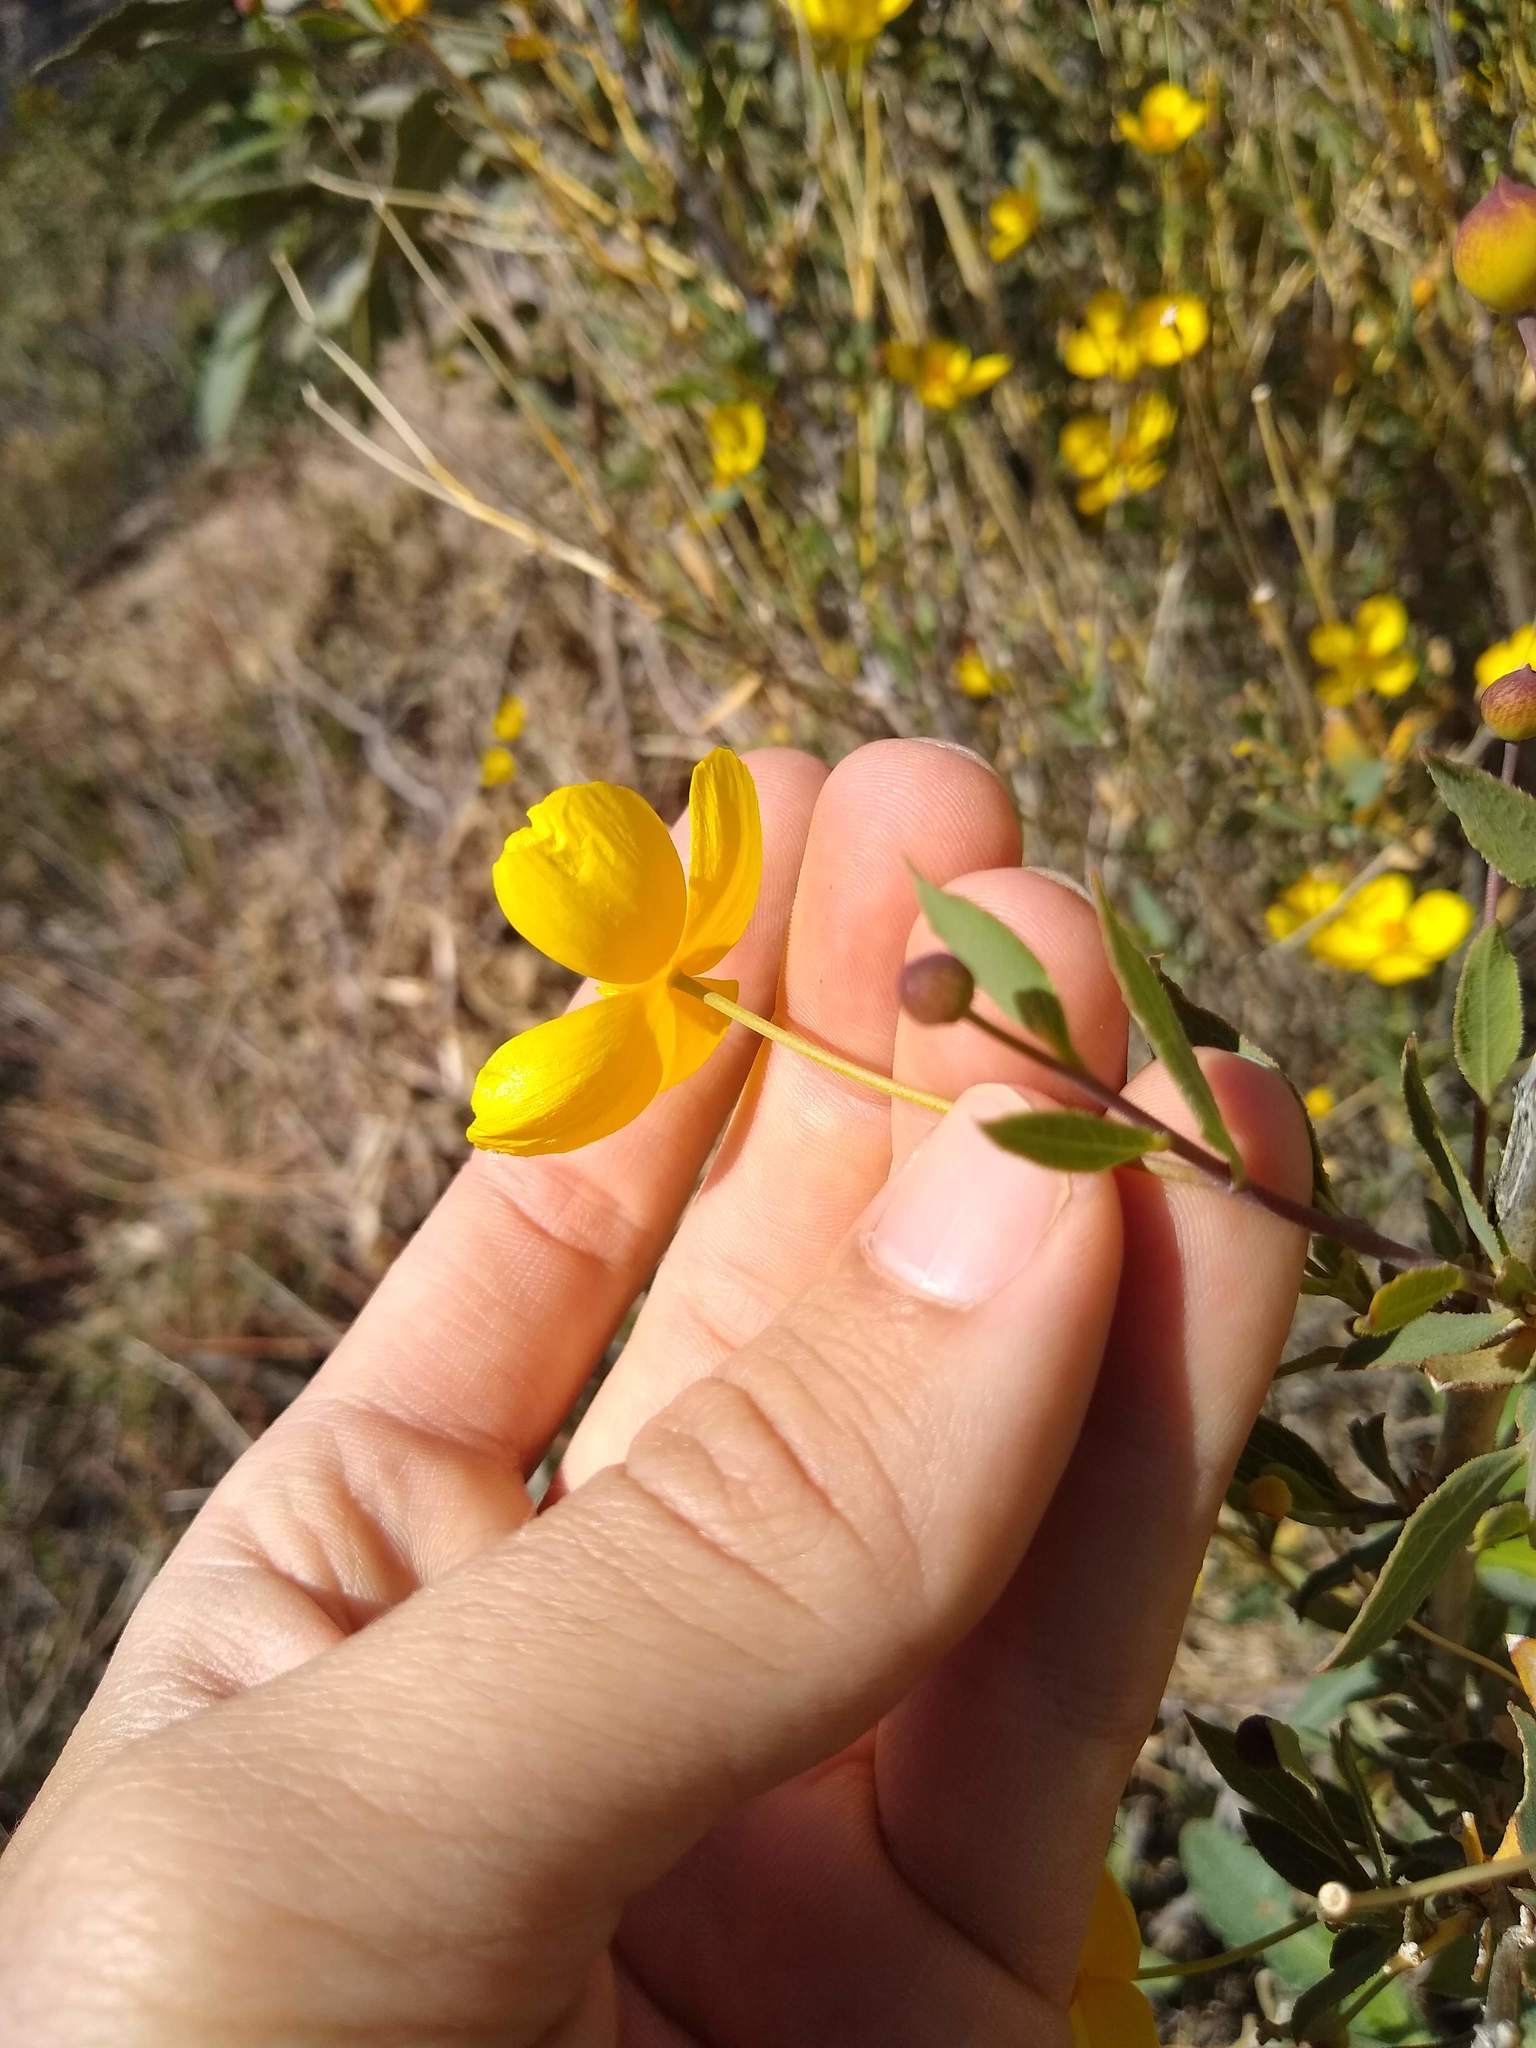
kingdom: Plantae
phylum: Tracheophyta
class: Magnoliopsida
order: Ranunculales
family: Papaveraceae
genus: Dendromecon
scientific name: Dendromecon rigida
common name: Tree poppy
